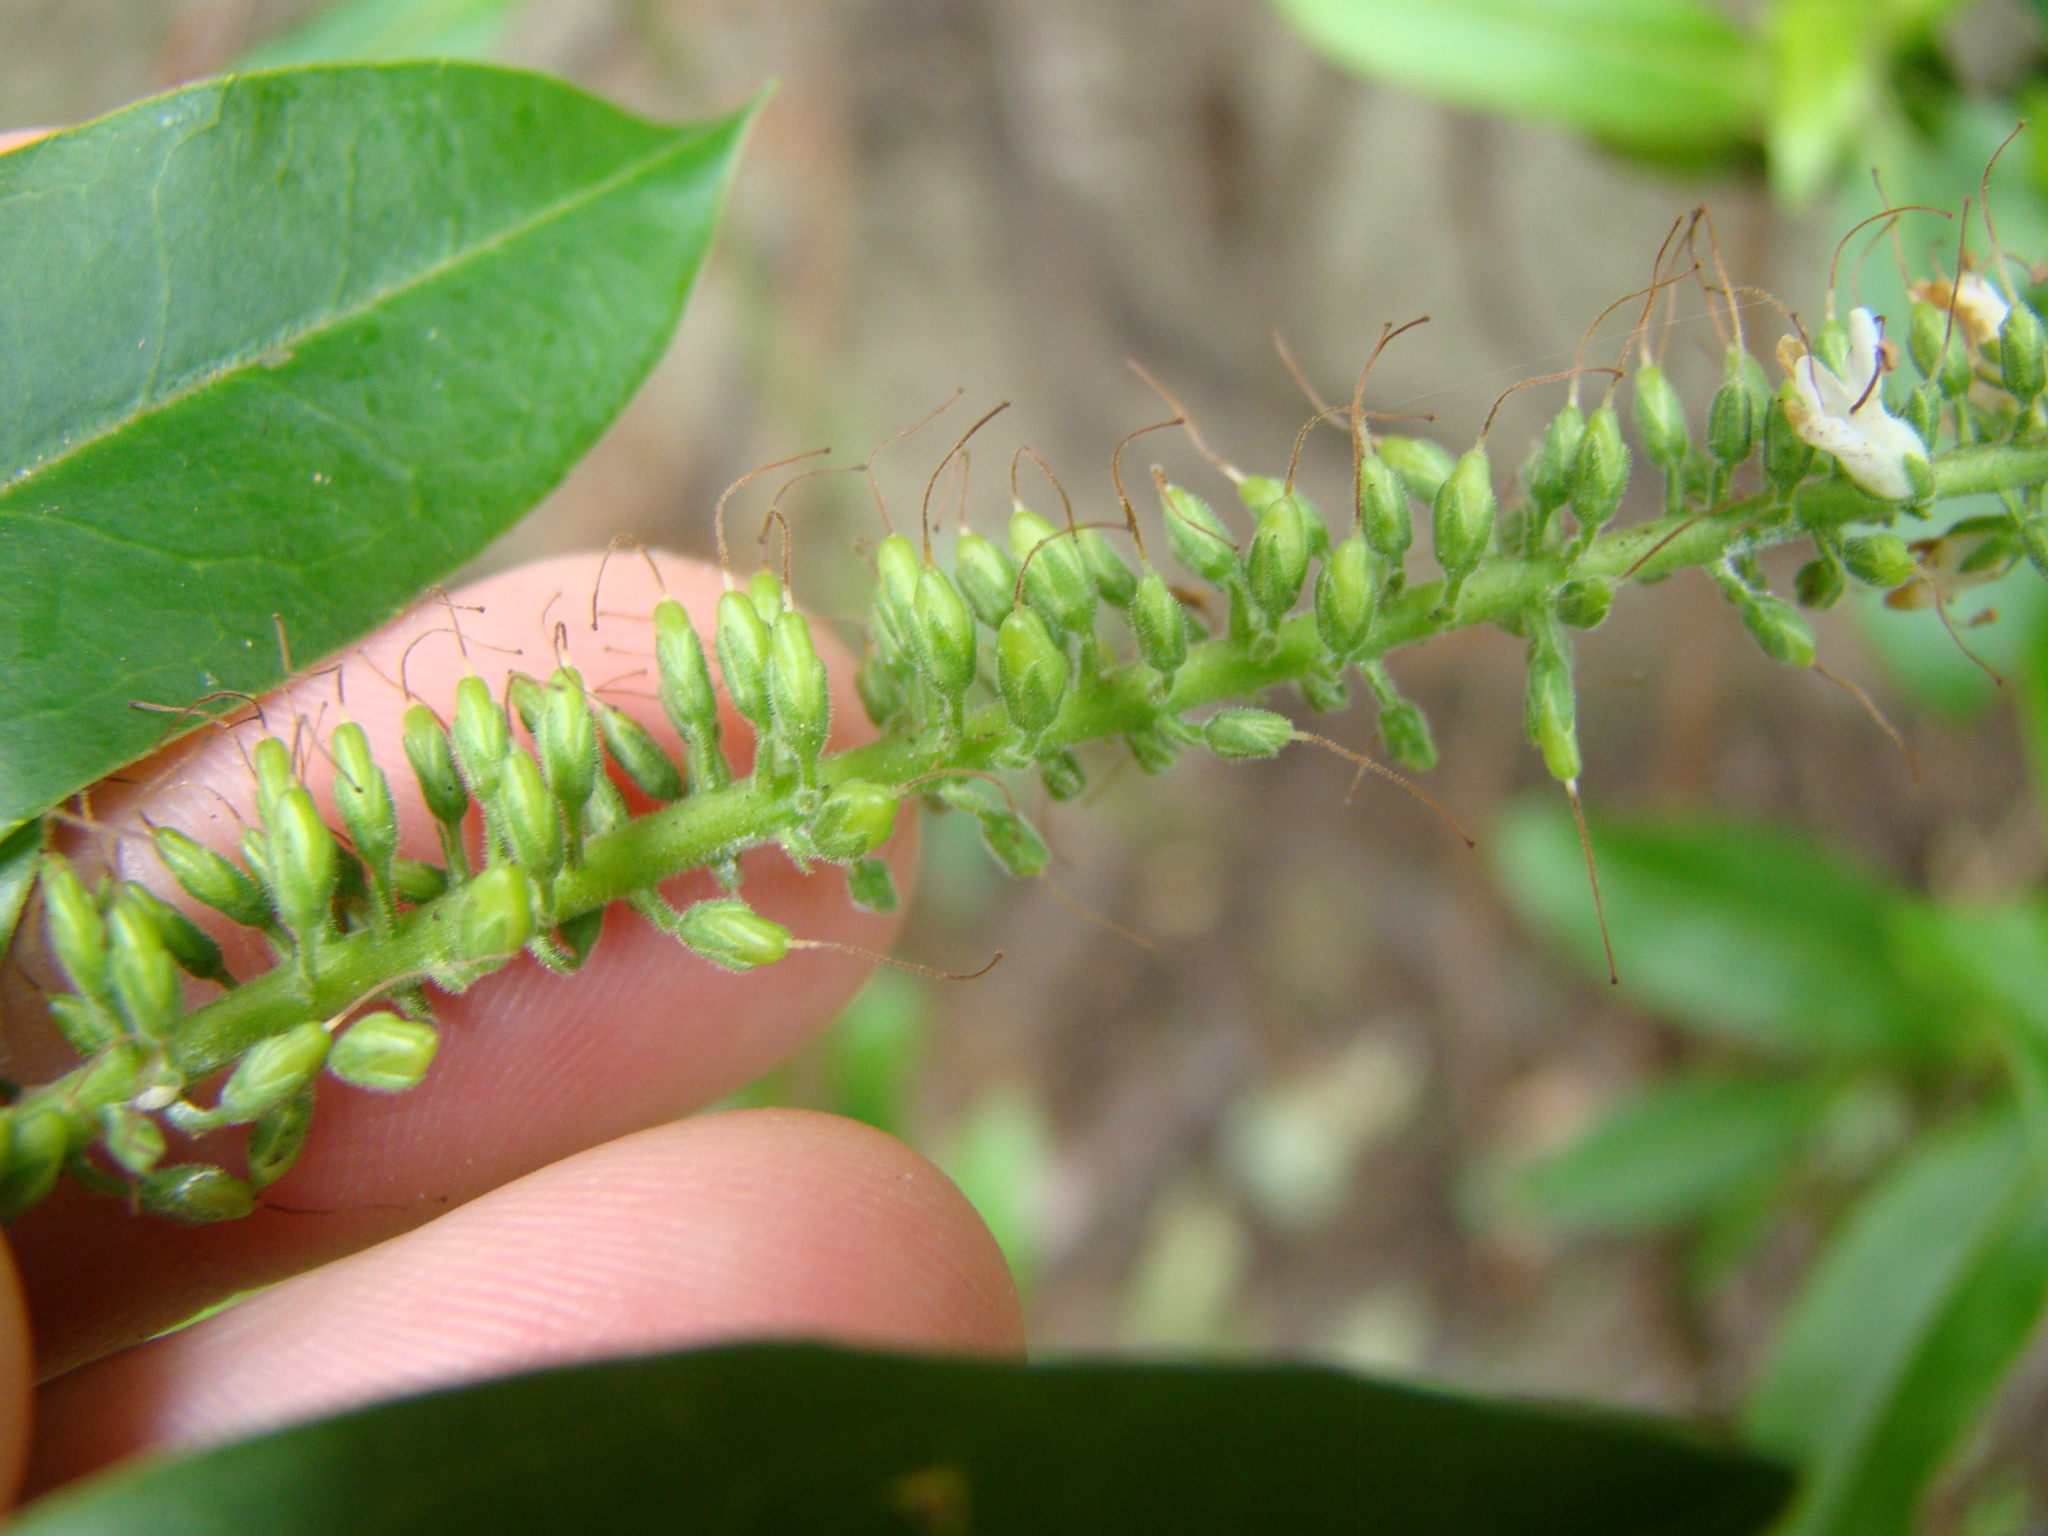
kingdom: Plantae
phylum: Tracheophyta
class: Magnoliopsida
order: Lamiales
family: Plantaginaceae
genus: Veronica
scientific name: Veronica stricta
